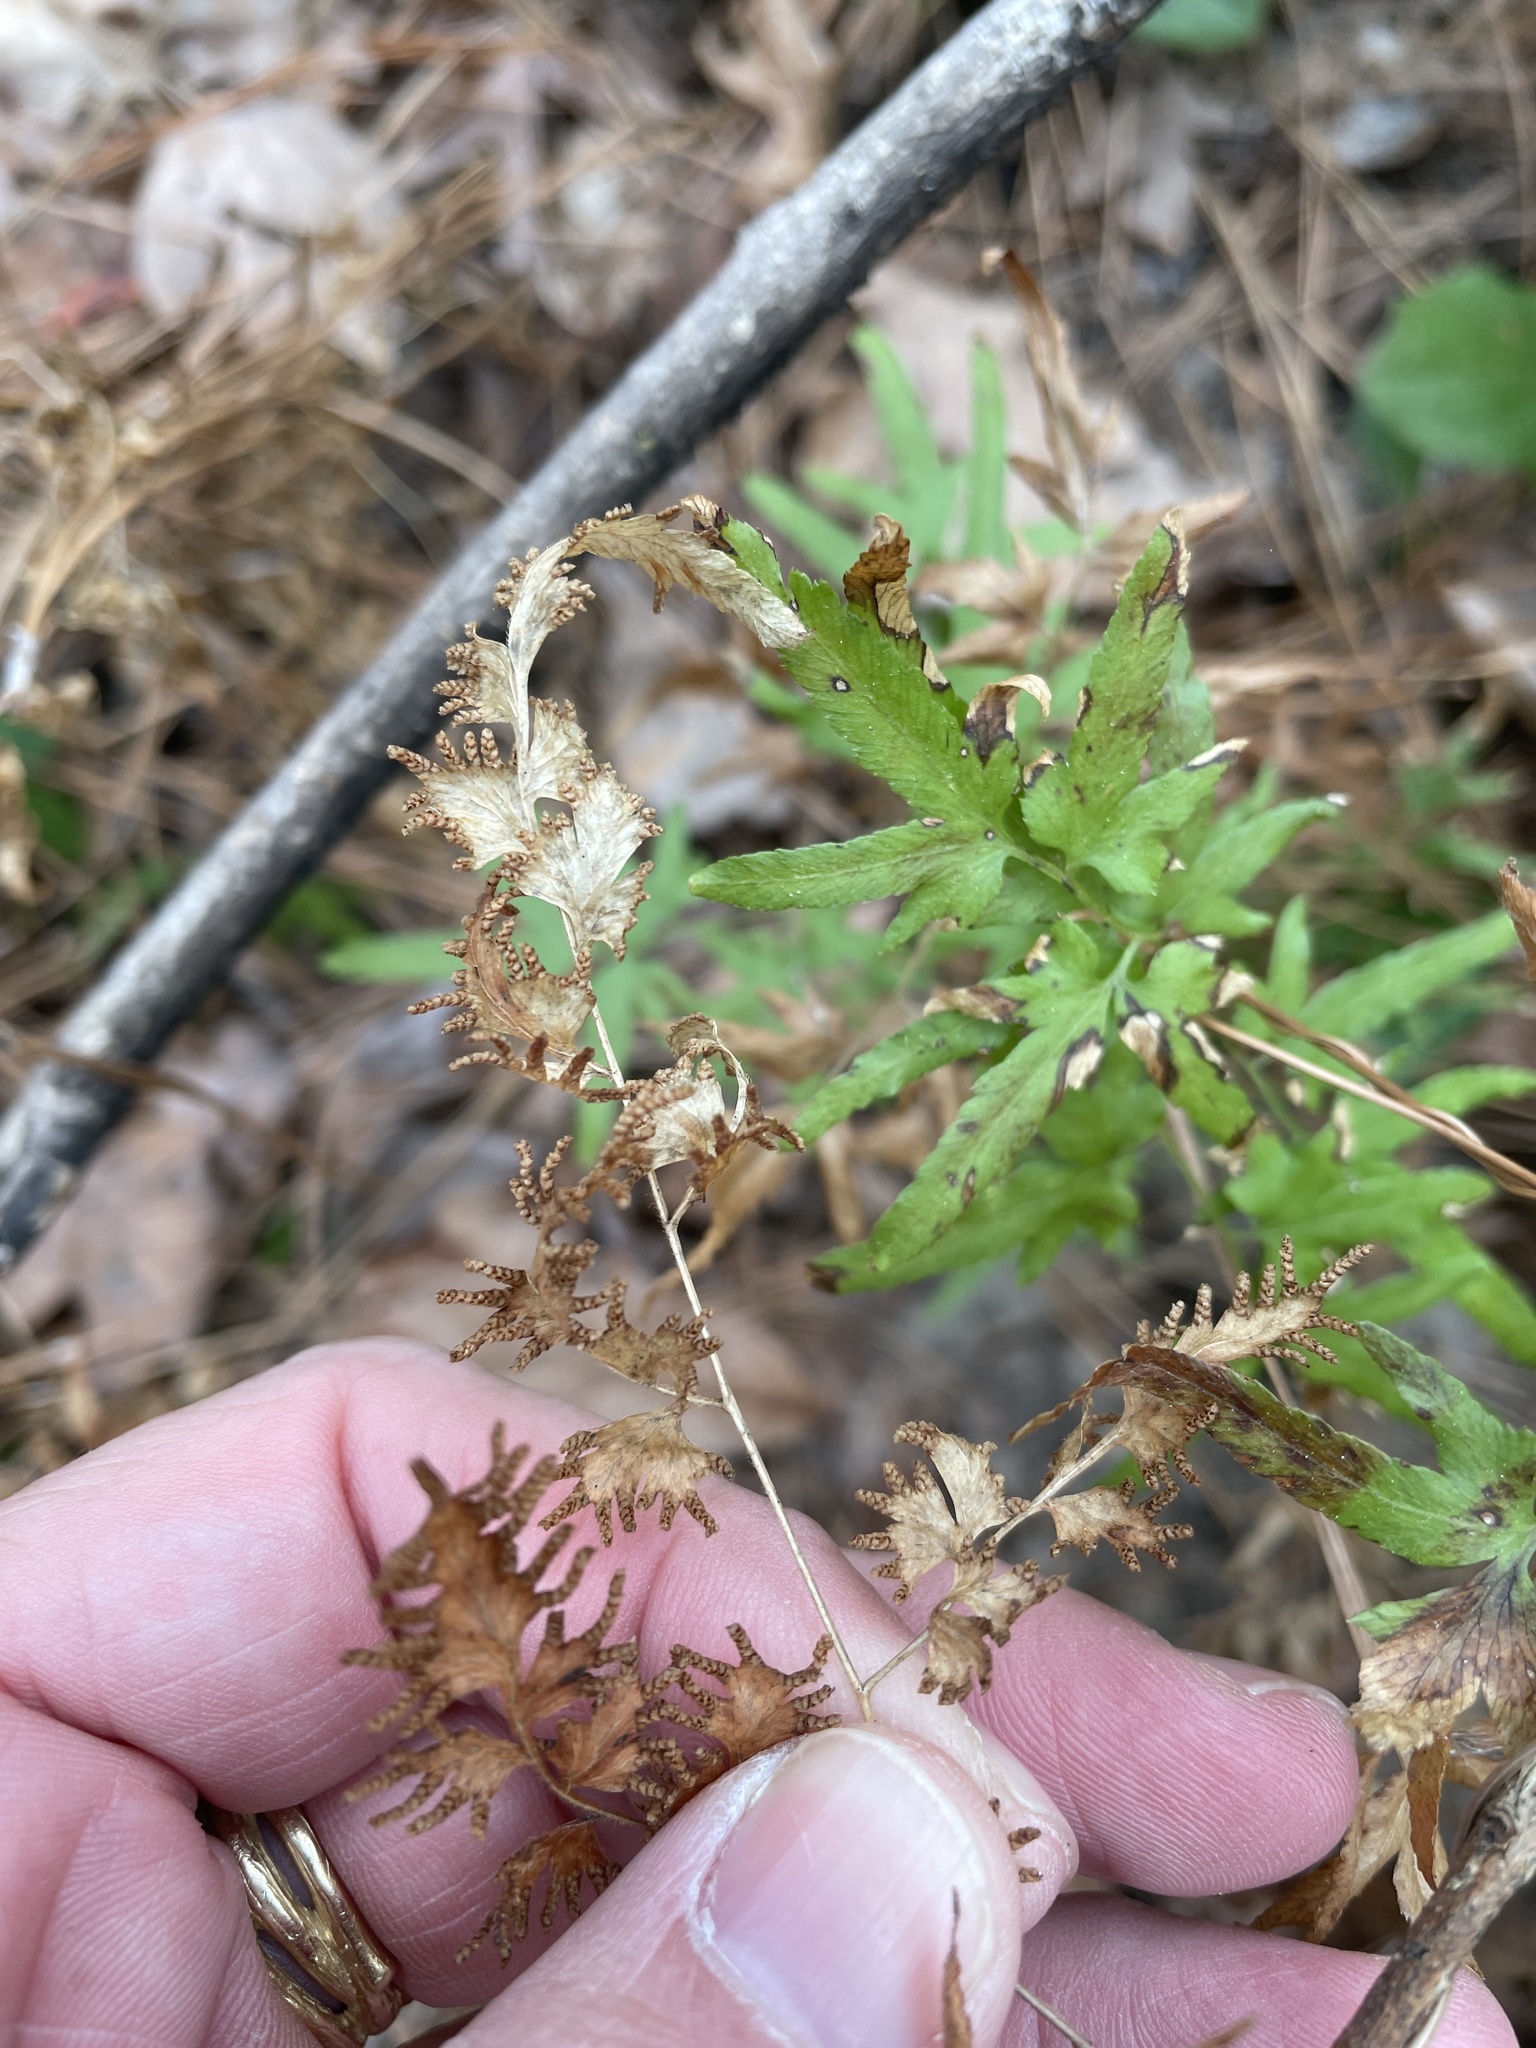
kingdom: Plantae
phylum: Tracheophyta
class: Polypodiopsida
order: Schizaeales
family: Lygodiaceae
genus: Lygodium
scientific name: Lygodium japonicum
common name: Japanese climbing fern
